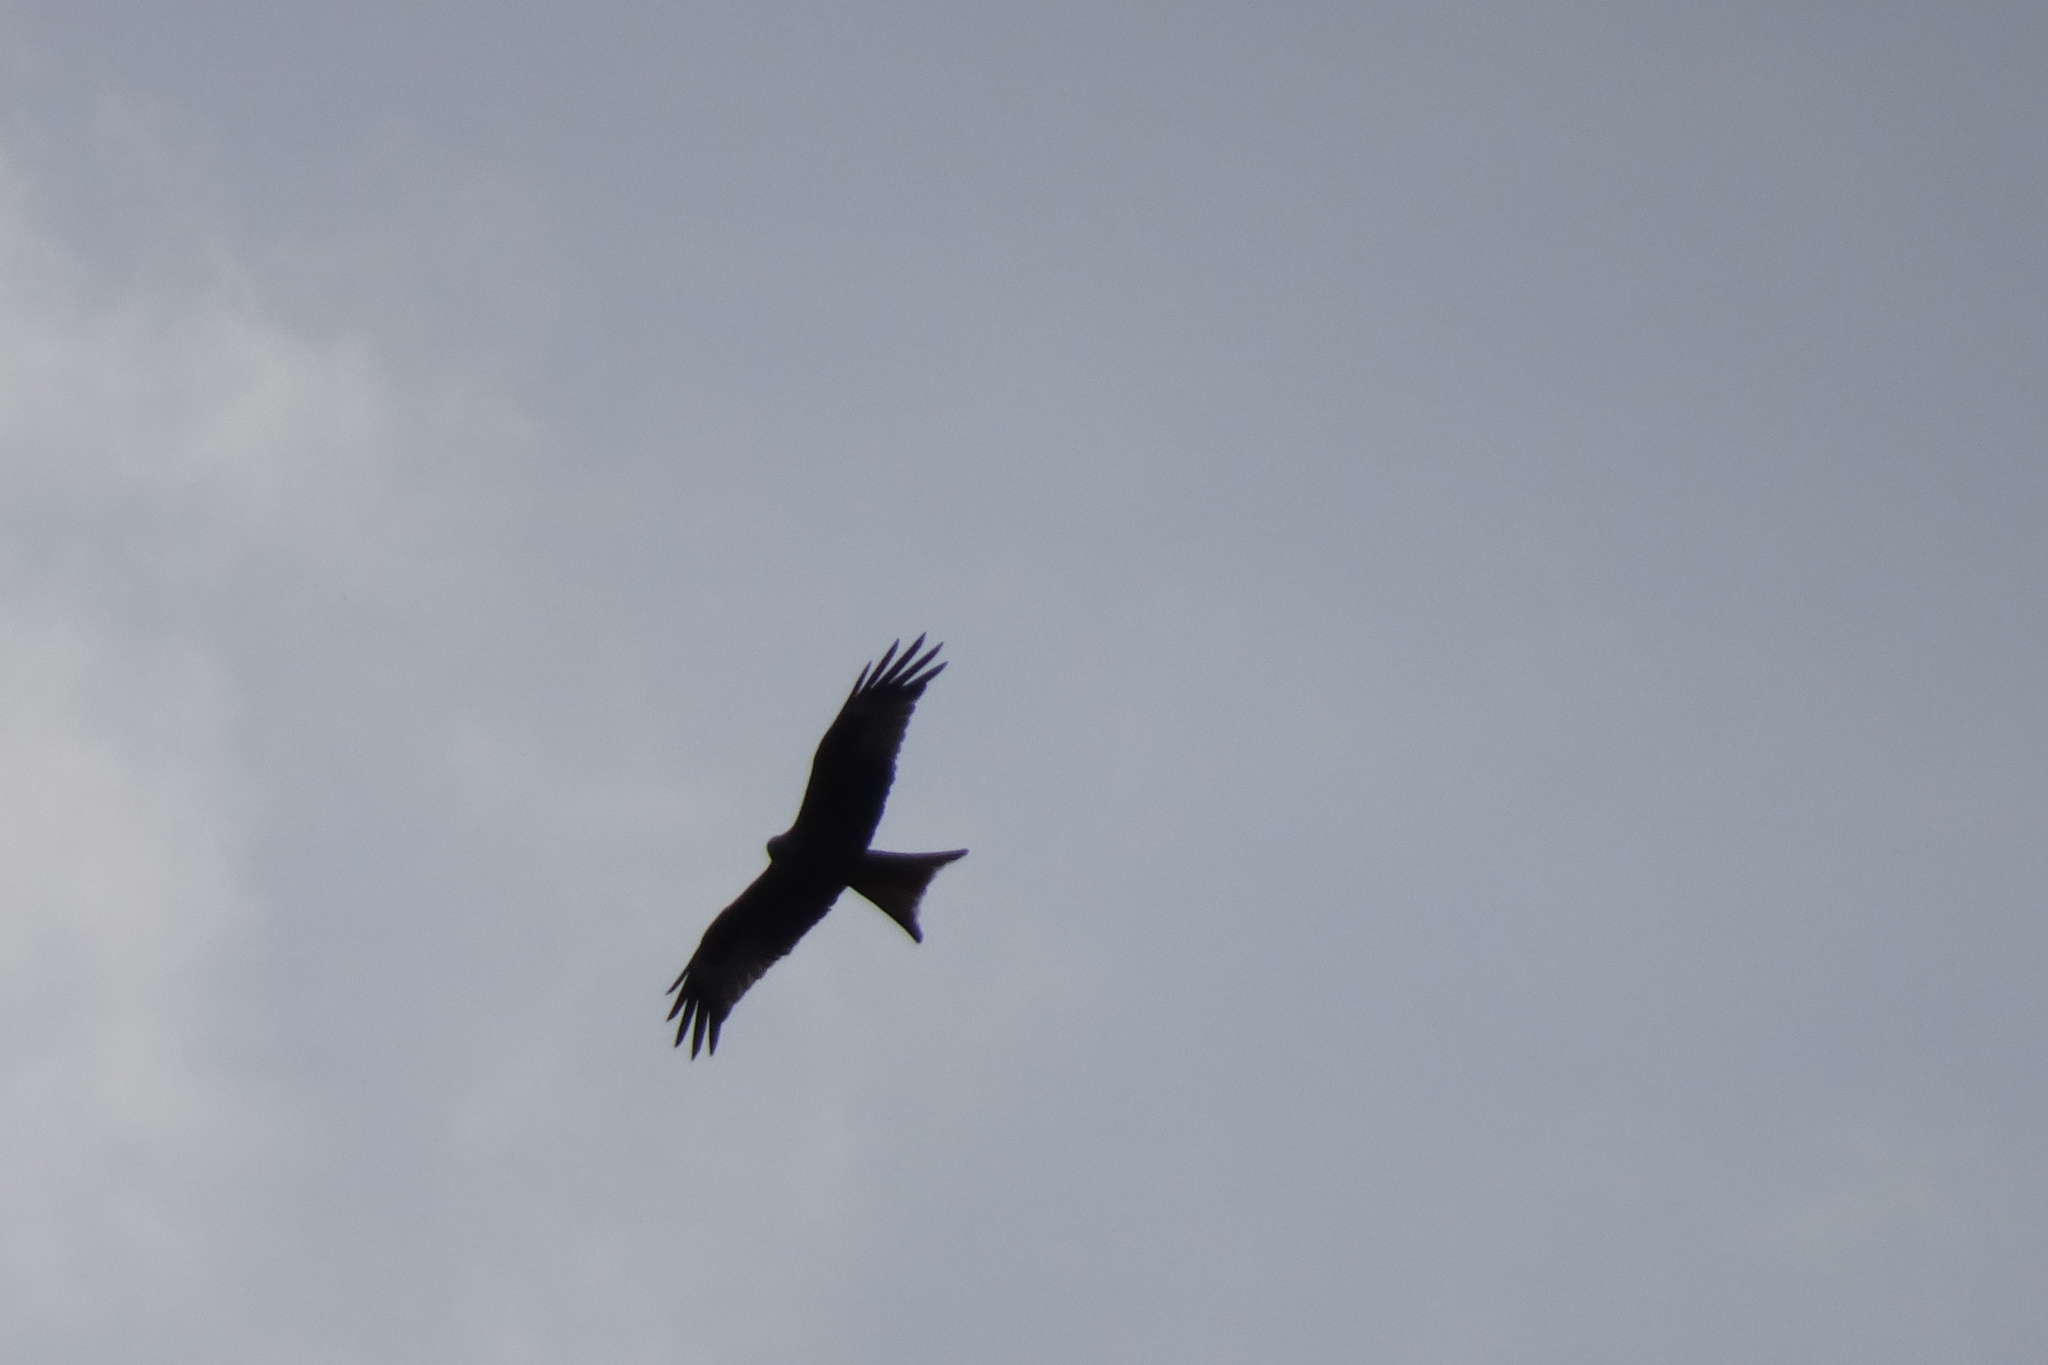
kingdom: Animalia
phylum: Chordata
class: Aves
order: Accipitriformes
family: Accipitridae
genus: Milvus
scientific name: Milvus milvus
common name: Red kite
